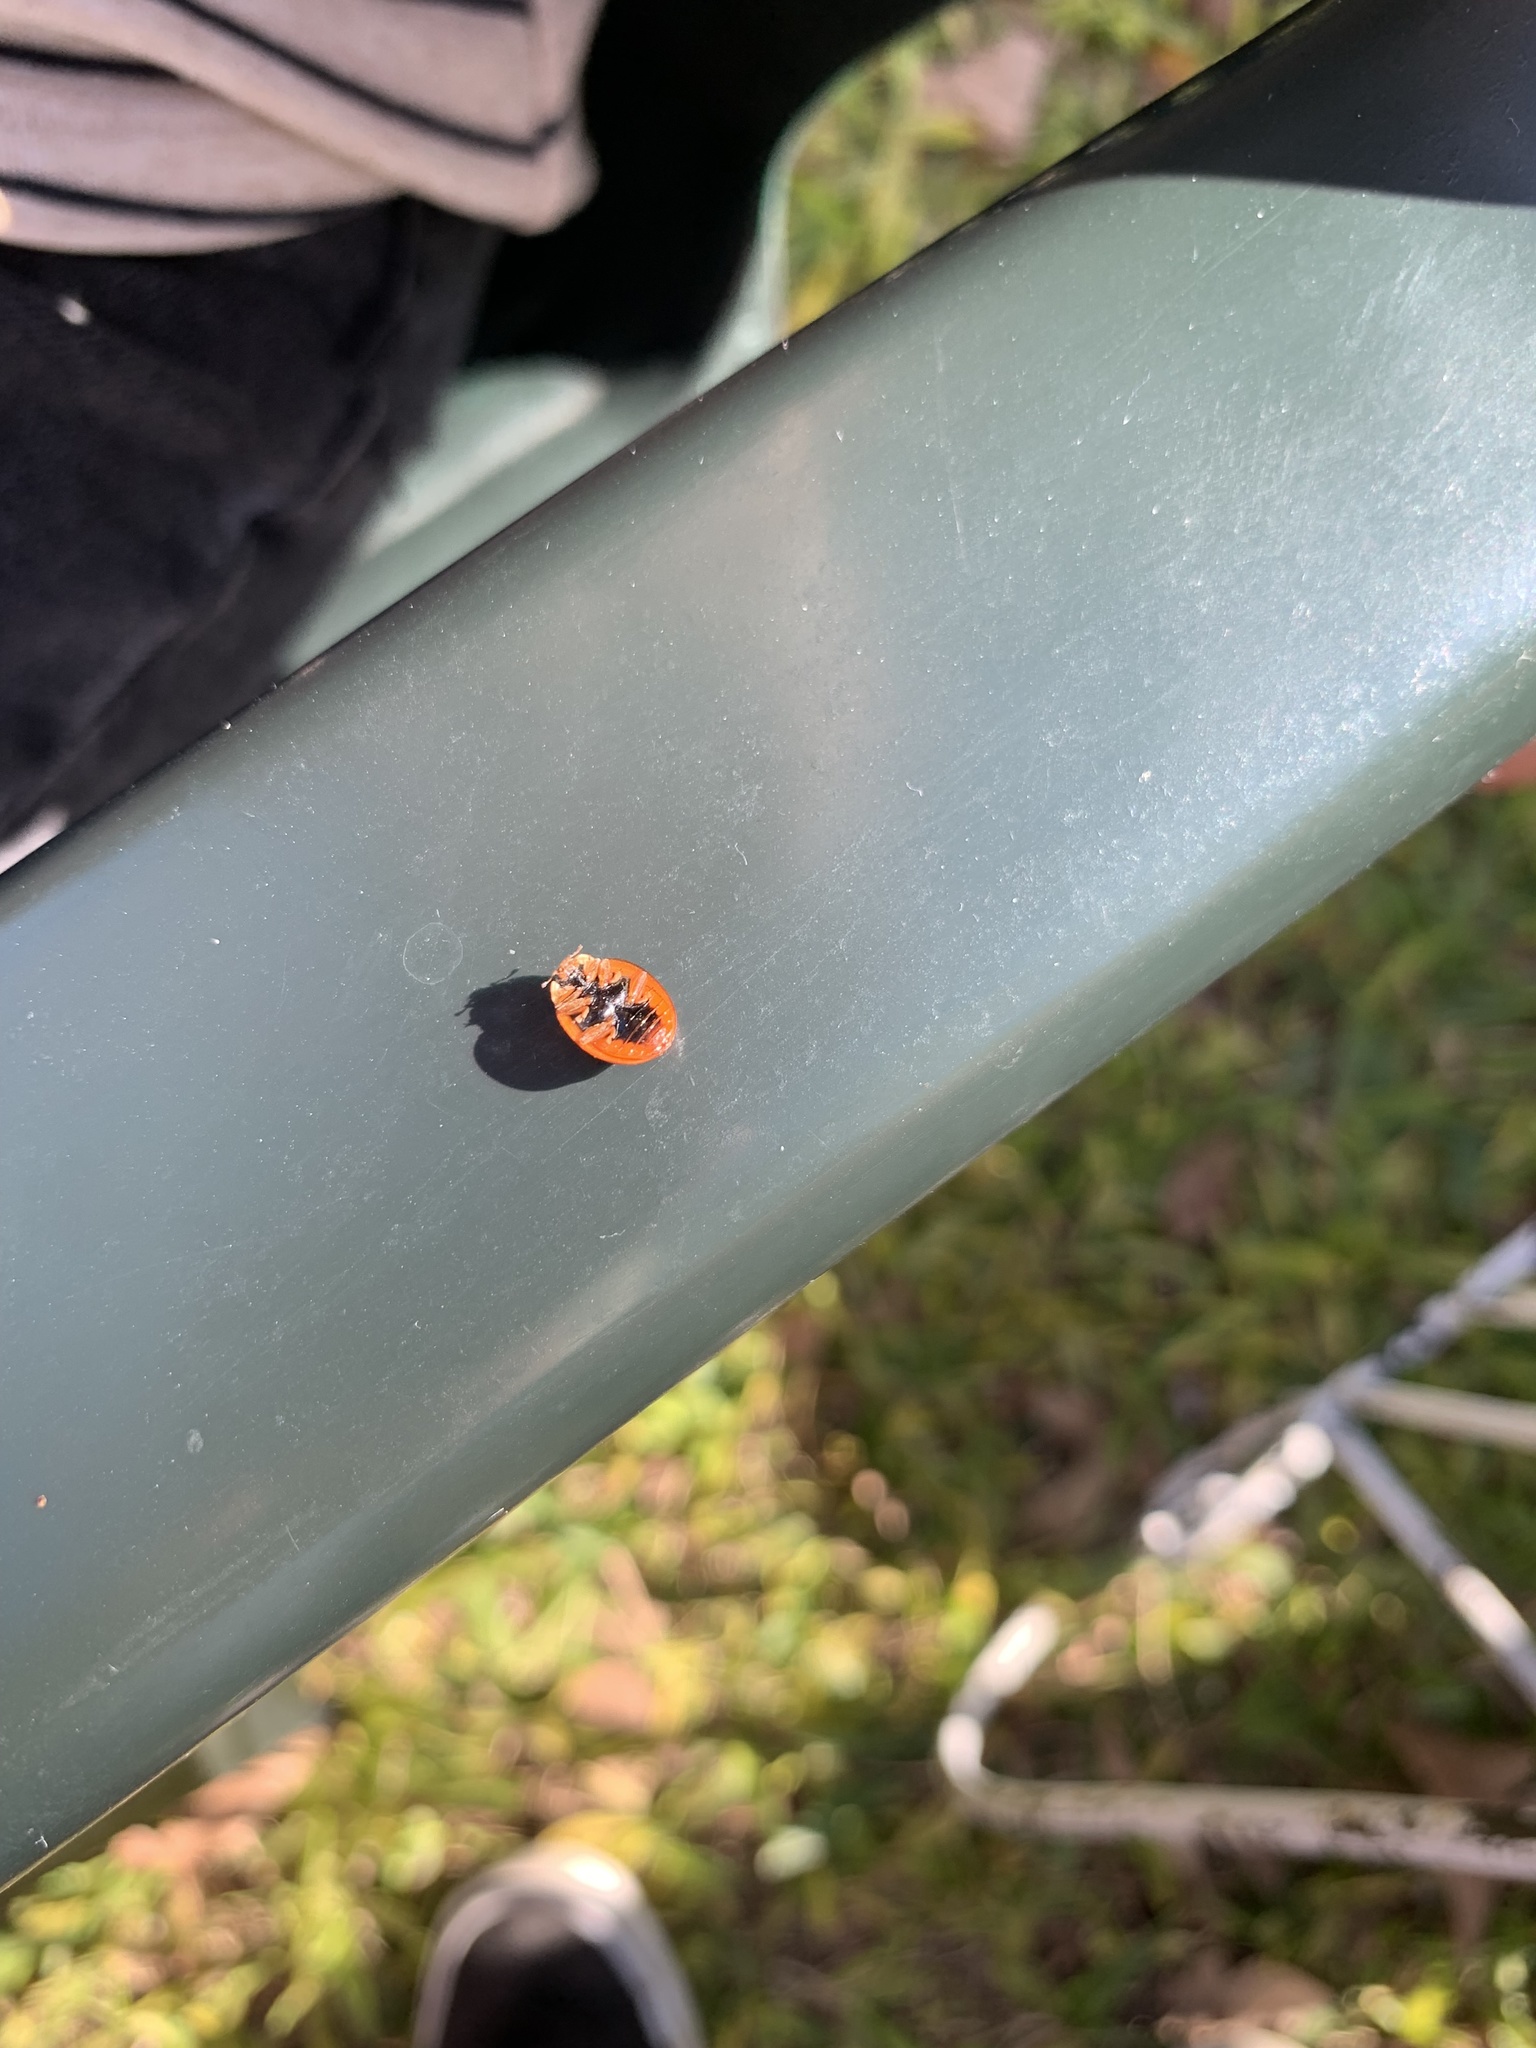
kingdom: Animalia
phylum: Arthropoda
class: Insecta
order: Coleoptera
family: Coccinellidae
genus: Harmonia
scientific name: Harmonia axyridis
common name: Harlequin ladybird
